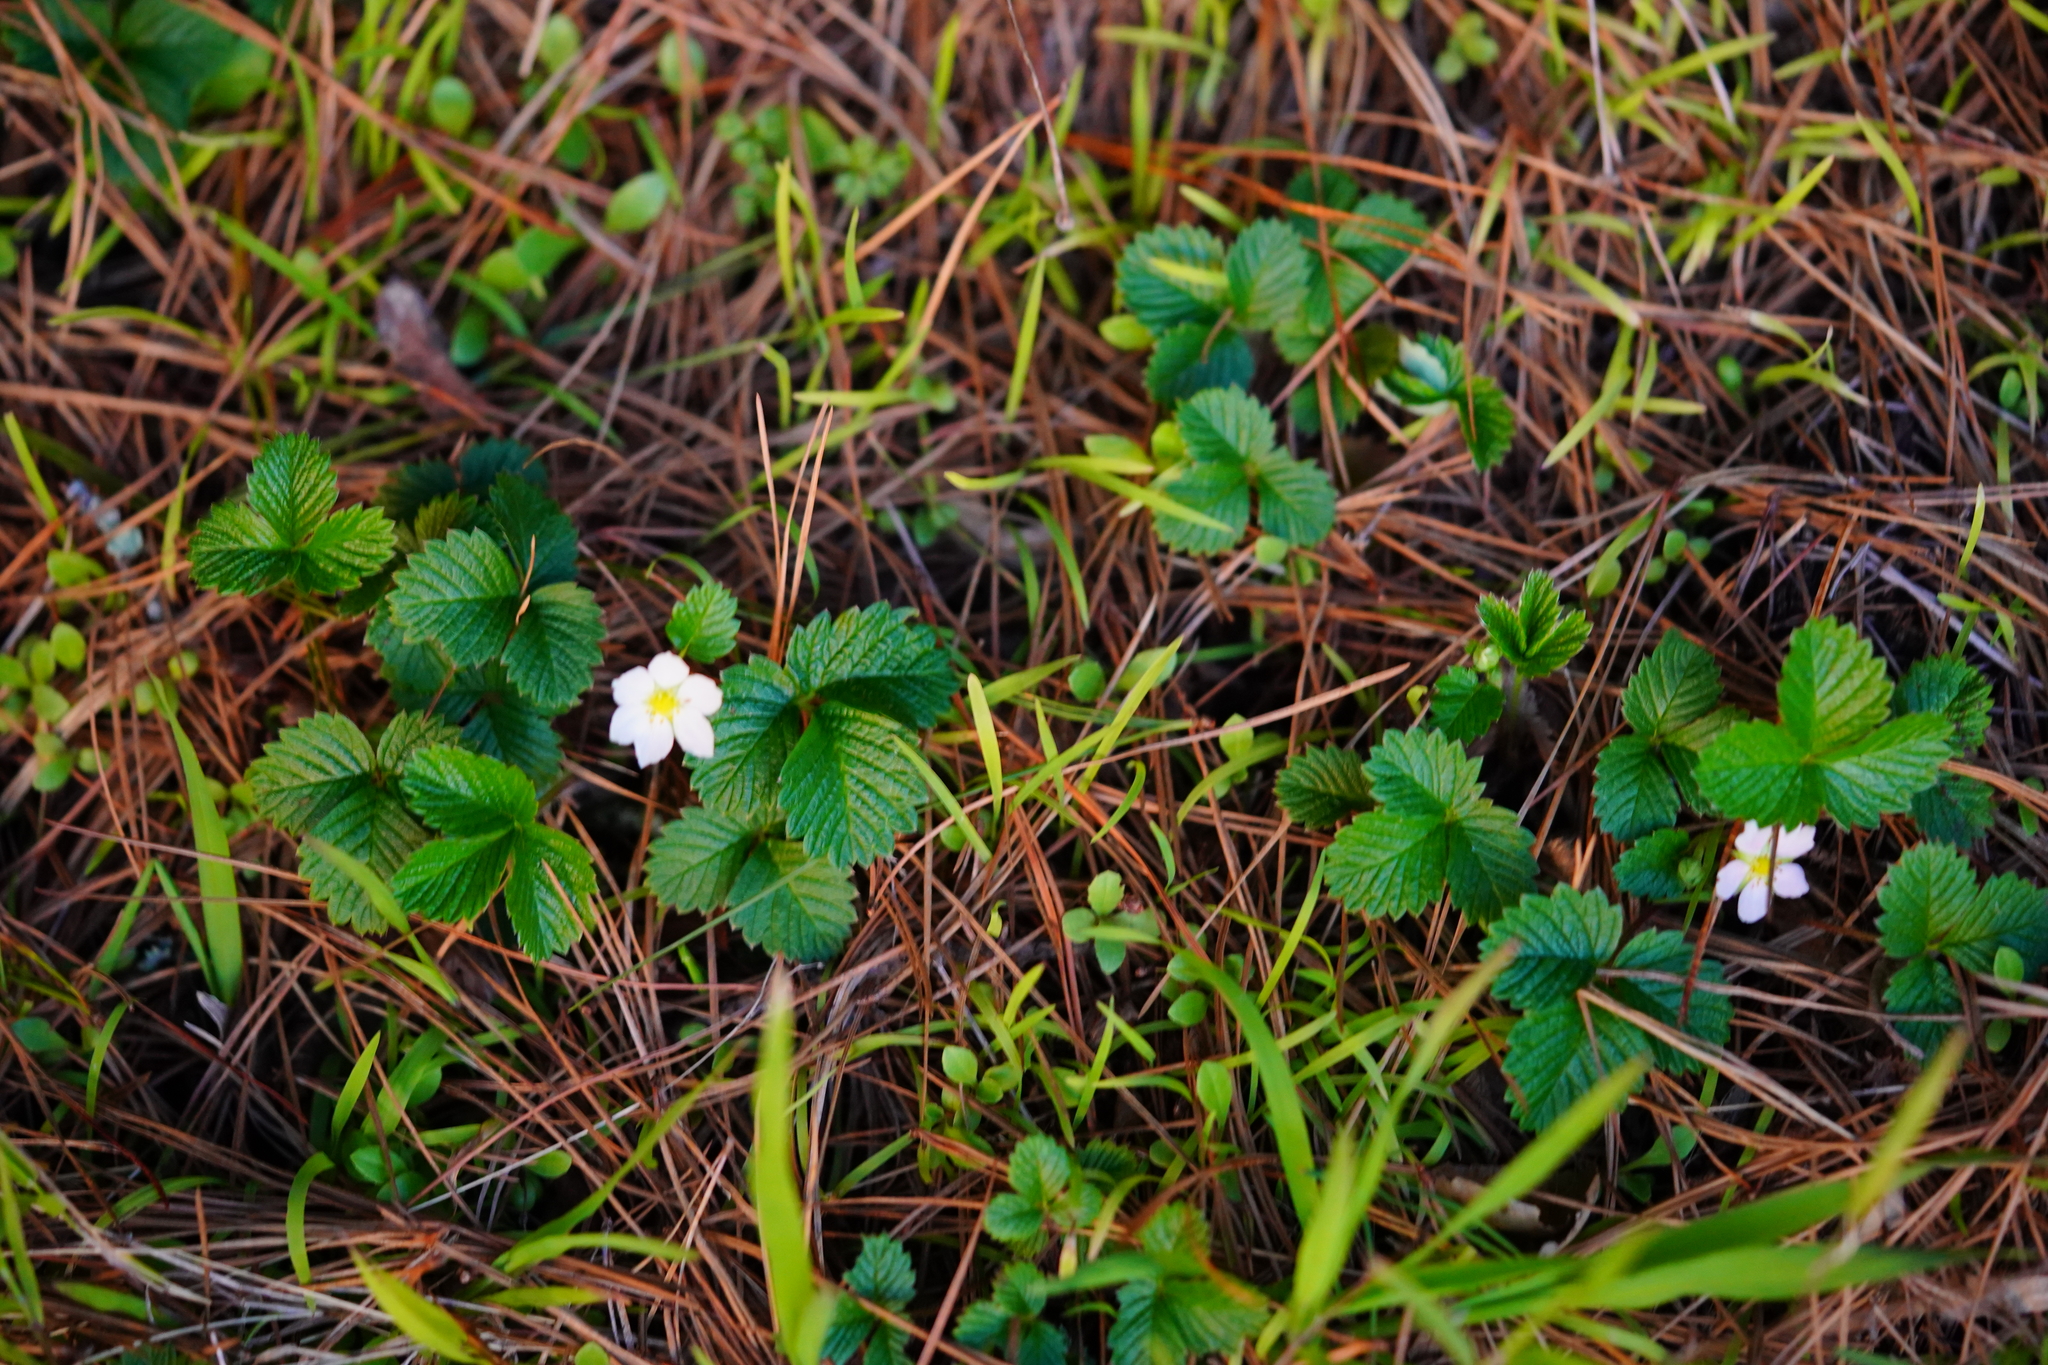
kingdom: Plantae
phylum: Tracheophyta
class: Magnoliopsida
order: Rosales
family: Rosaceae
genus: Fragaria
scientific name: Fragaria vesca
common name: Wild strawberry
